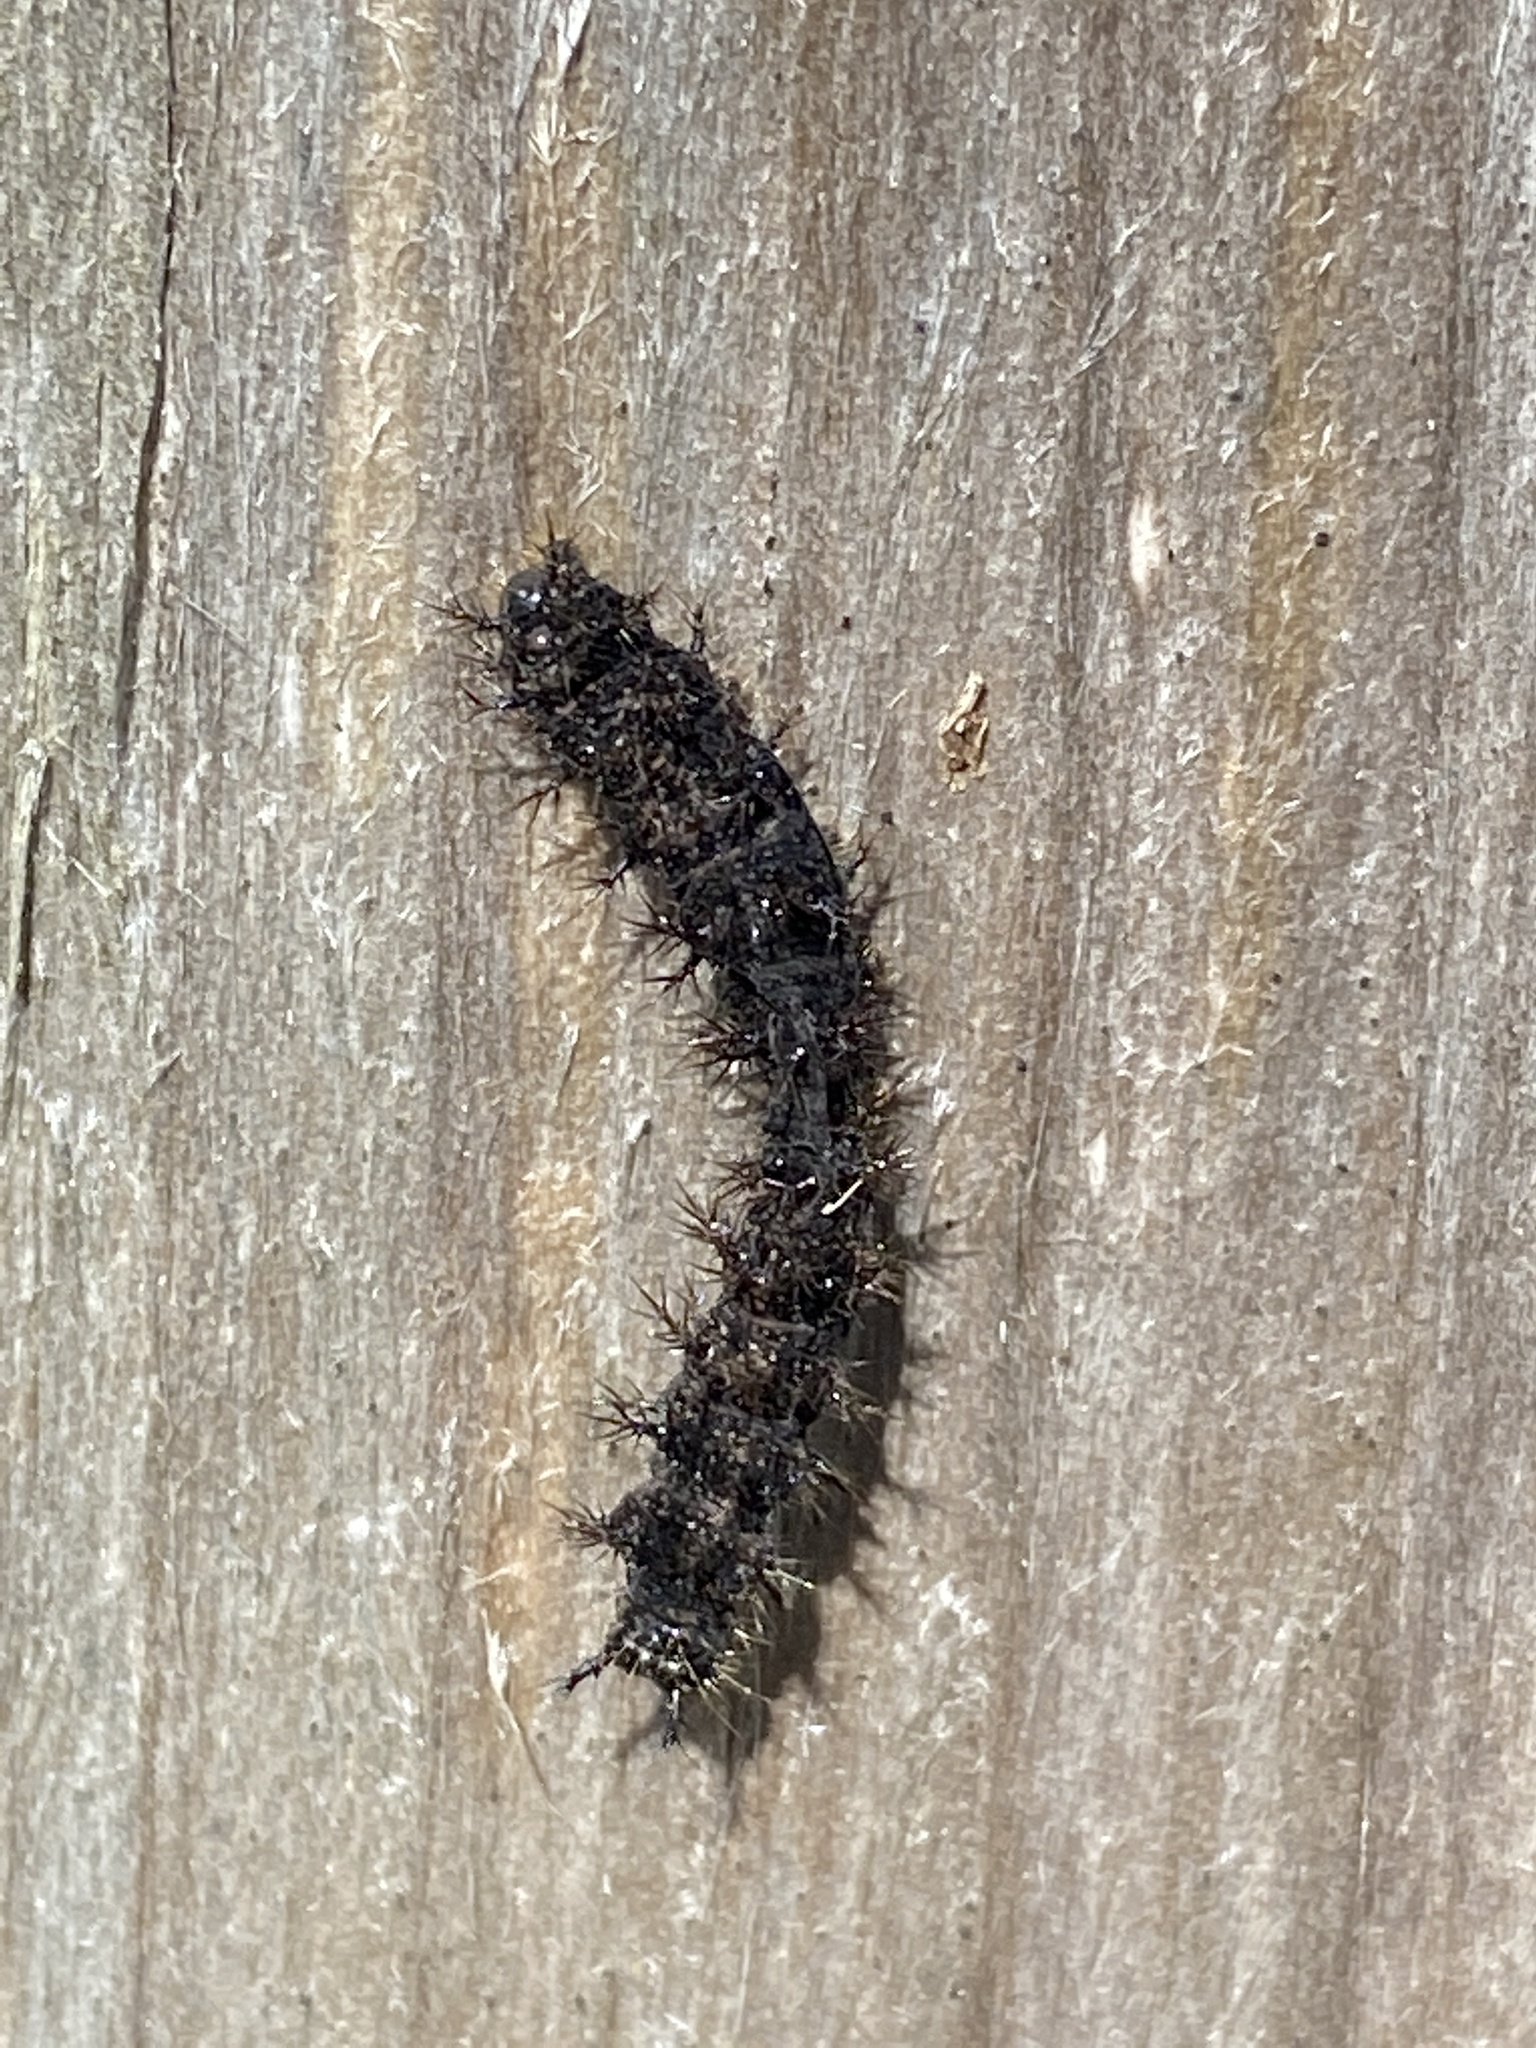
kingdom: Animalia
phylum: Arthropoda
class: Insecta
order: Lepidoptera
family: Nymphalidae
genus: Araschnia
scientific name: Araschnia levana
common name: Map butterfly
